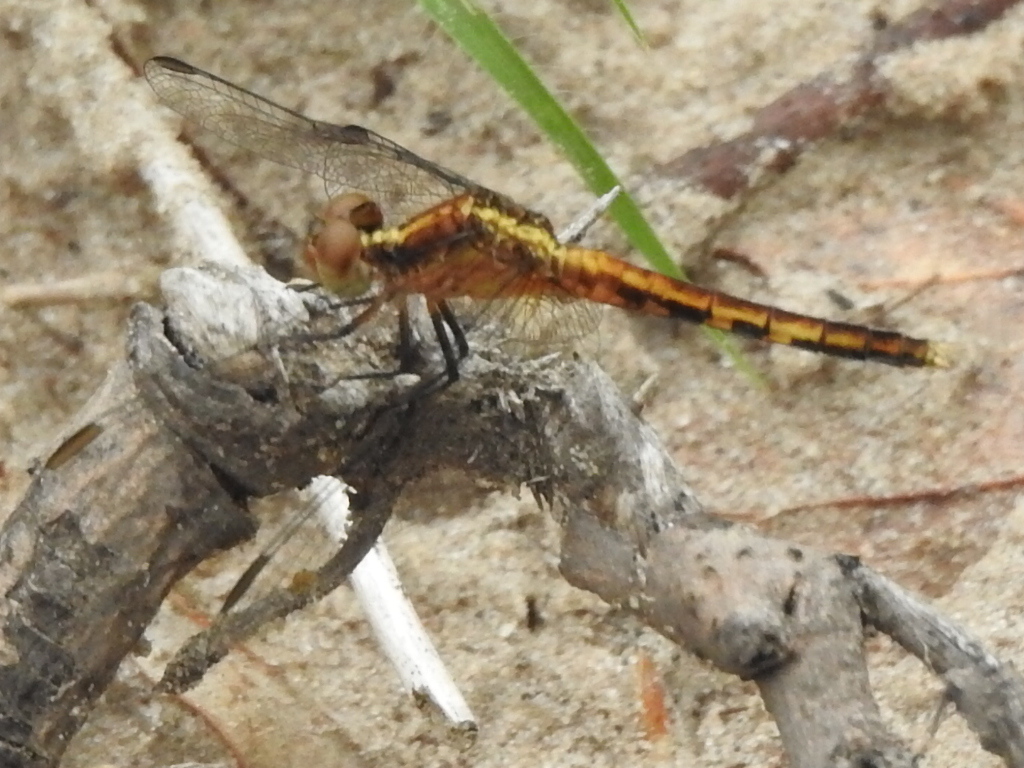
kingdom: Animalia
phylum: Arthropoda
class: Insecta
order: Odonata
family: Libellulidae
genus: Erythrodiplax
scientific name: Erythrodiplax minuscula
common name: Little blue dragonlet
